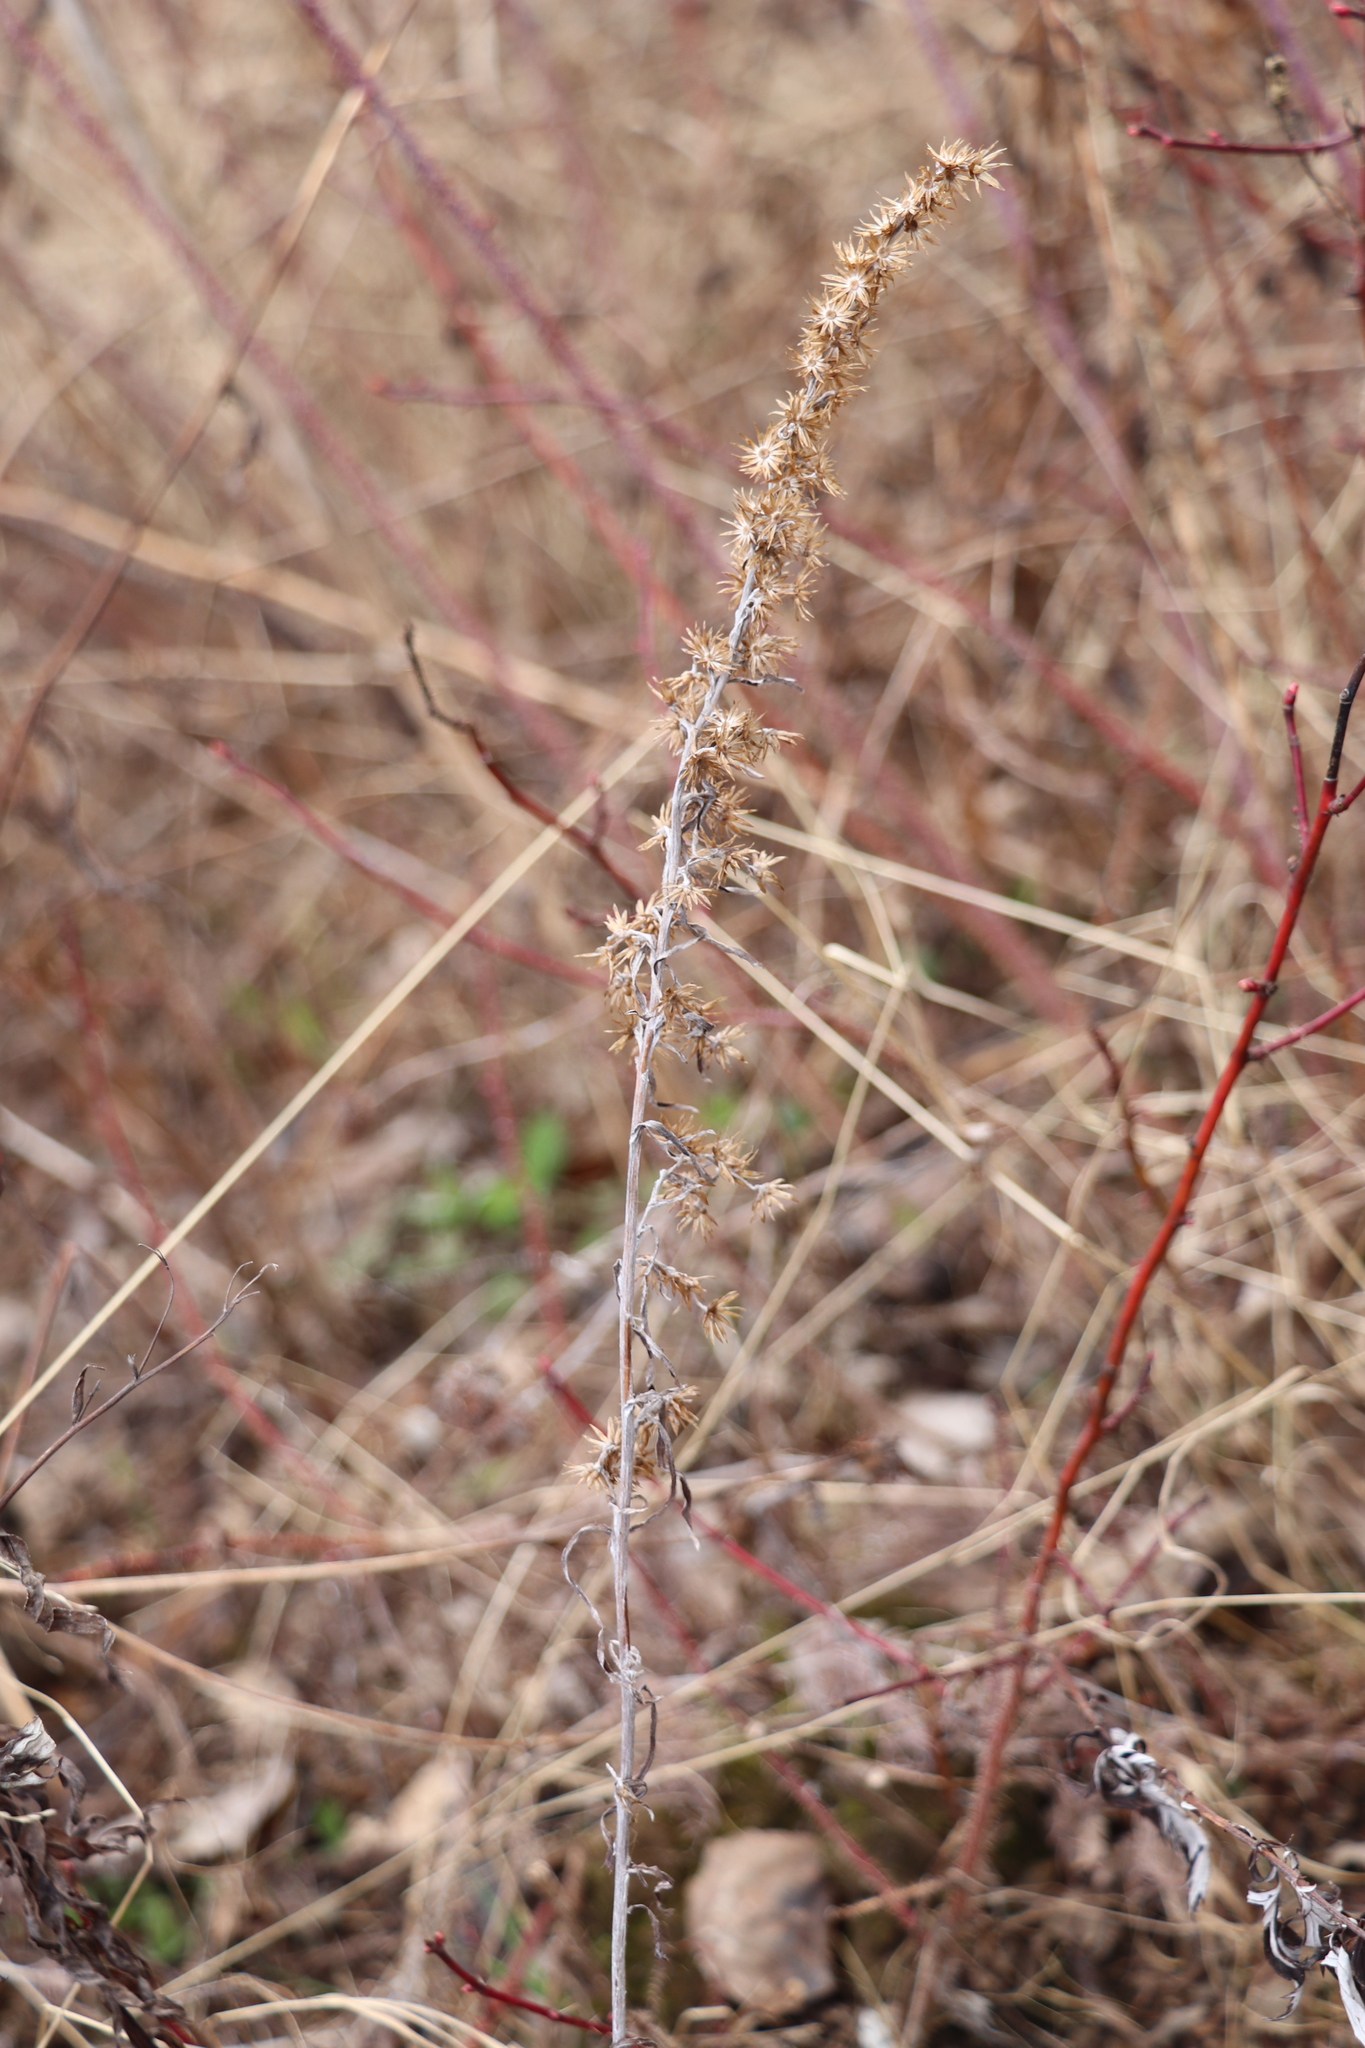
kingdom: Plantae
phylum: Tracheophyta
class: Magnoliopsida
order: Asterales
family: Asteraceae
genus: Omalotheca
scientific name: Omalotheca sylvatica
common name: Heath cudweed
